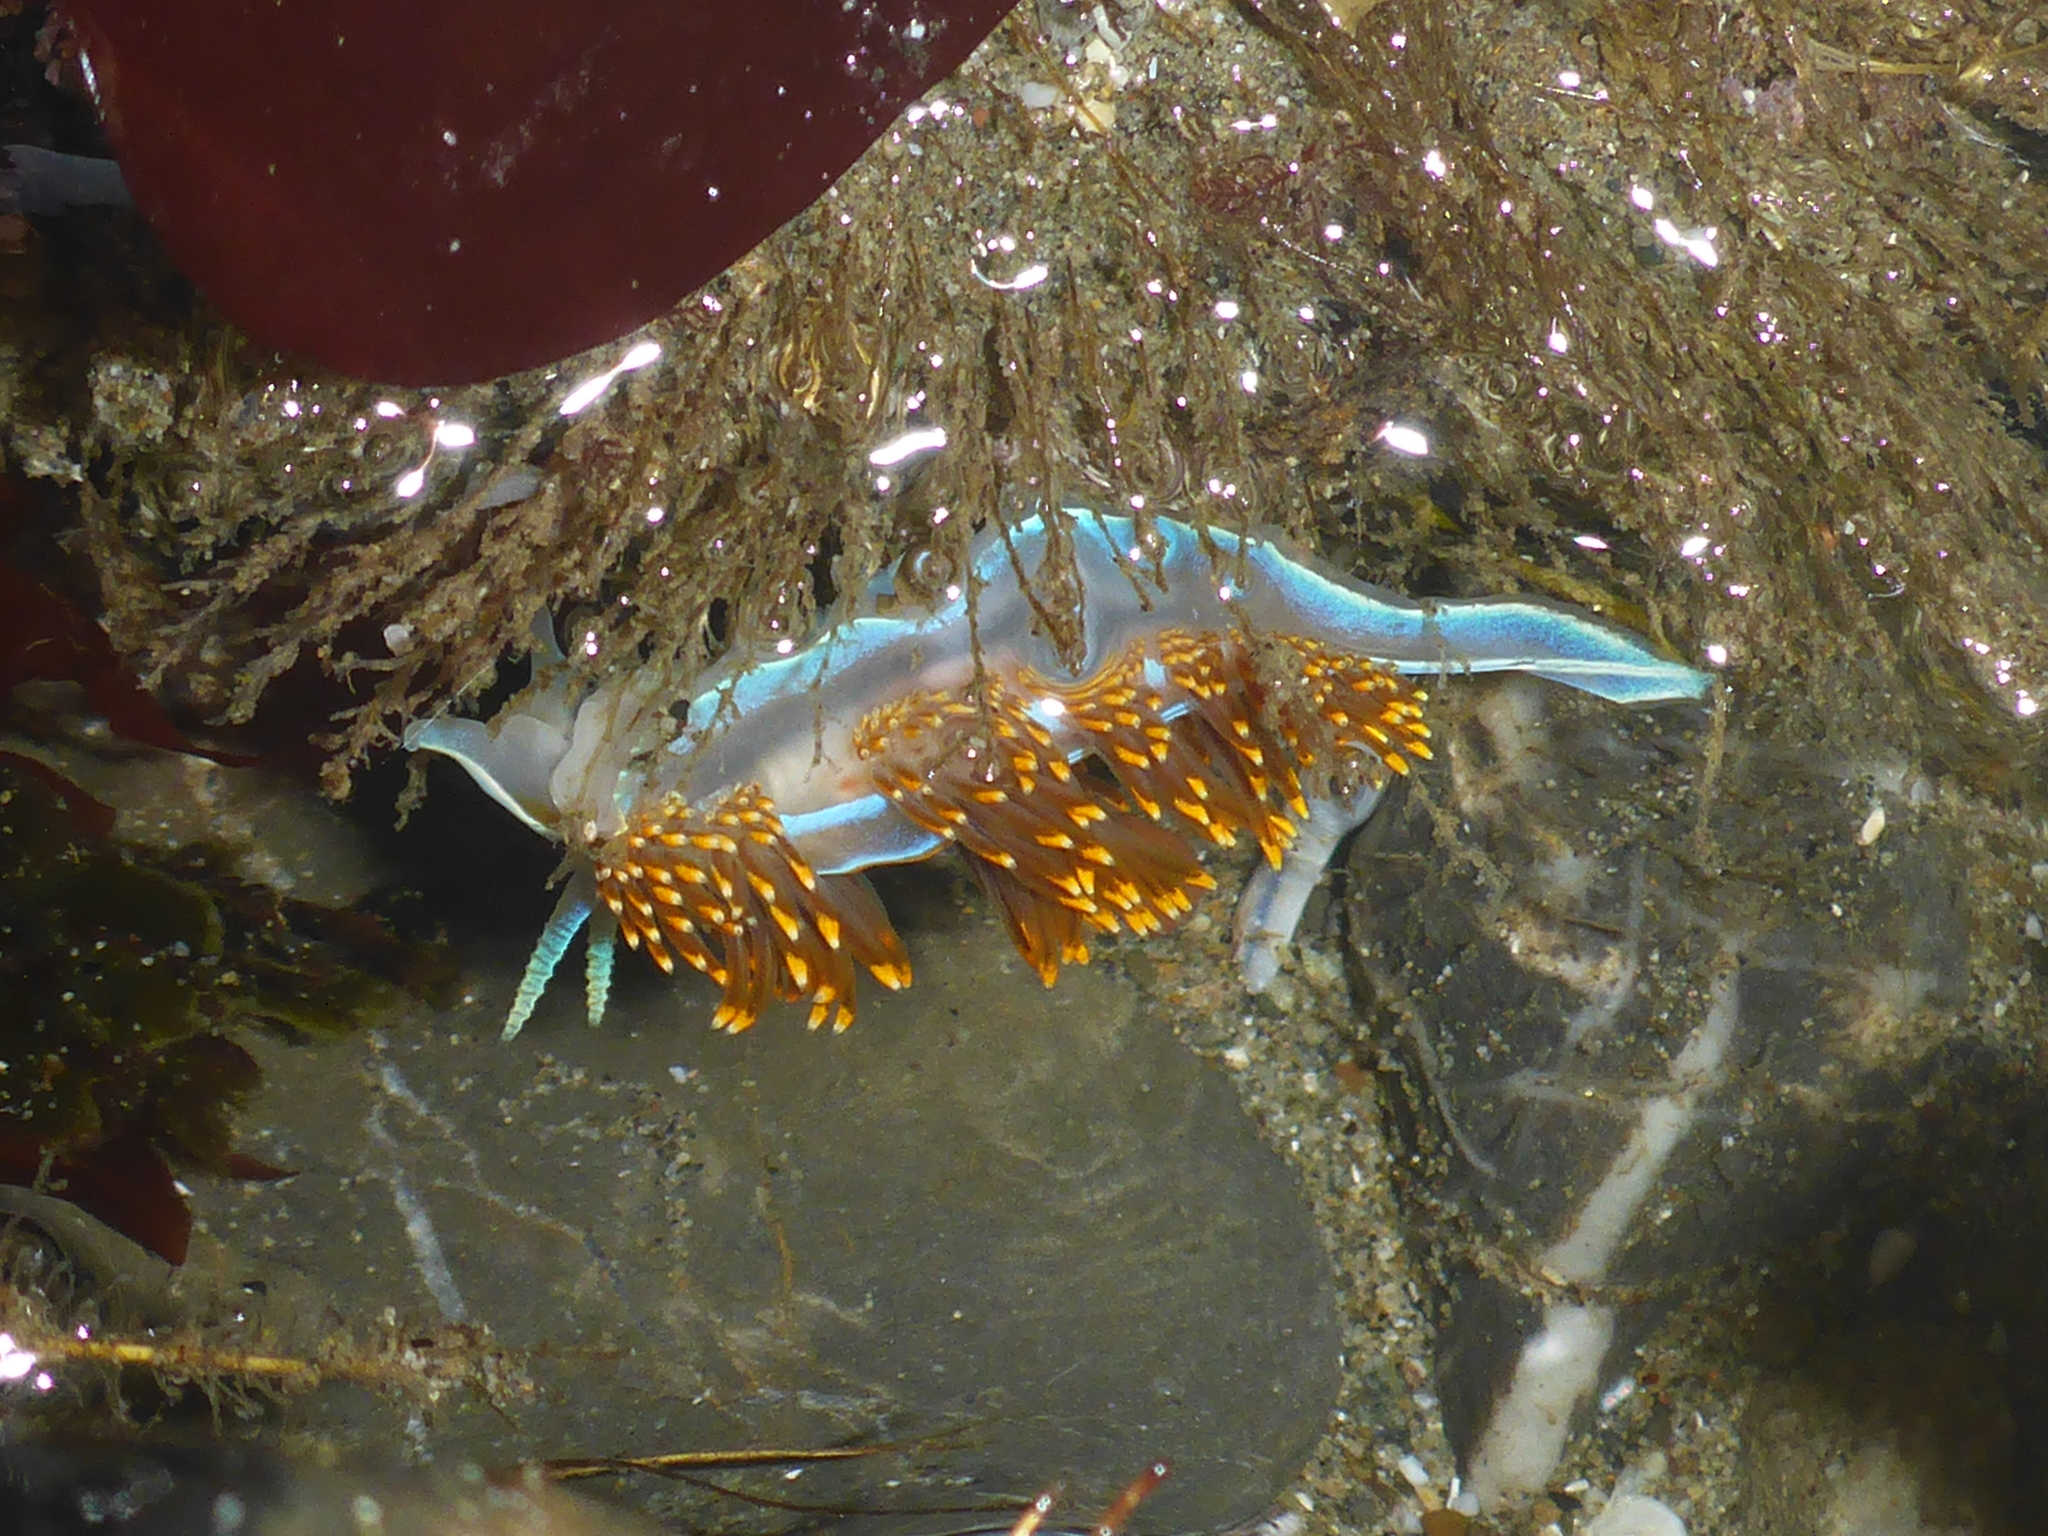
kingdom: Animalia
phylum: Mollusca
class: Gastropoda
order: Nudibranchia
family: Myrrhinidae
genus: Hermissenda
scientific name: Hermissenda opalescens
